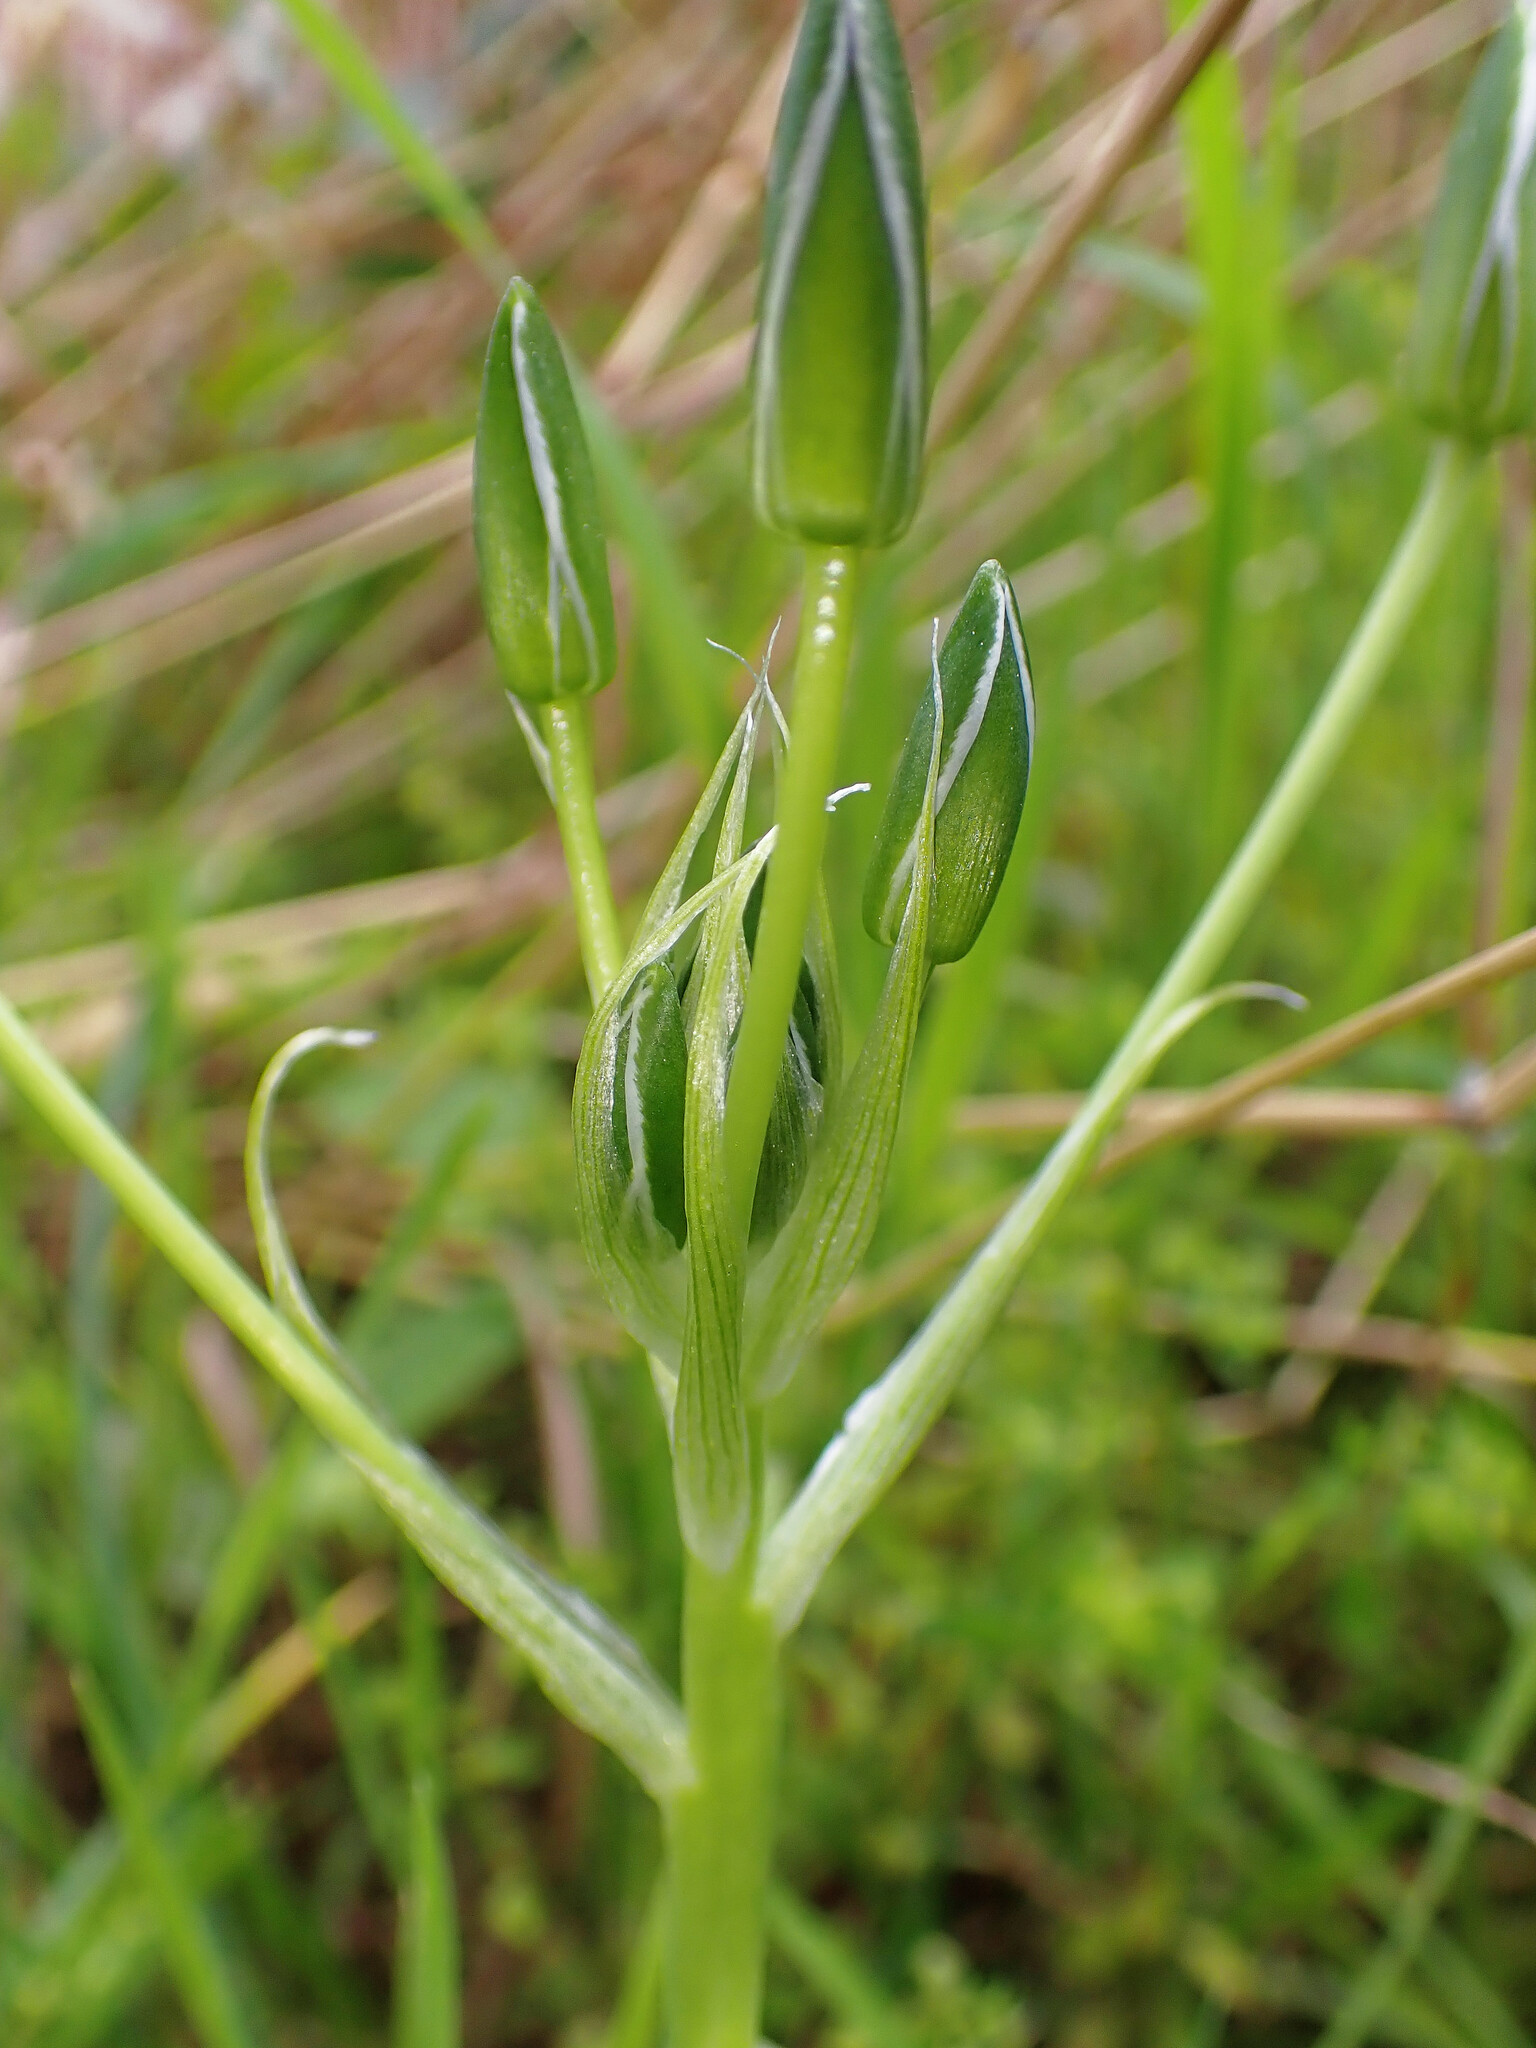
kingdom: Plantae
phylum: Tracheophyta
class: Liliopsida
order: Asparagales
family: Asparagaceae
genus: Ornithogalum
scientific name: Ornithogalum umbellatum
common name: Garden star-of-bethlehem
